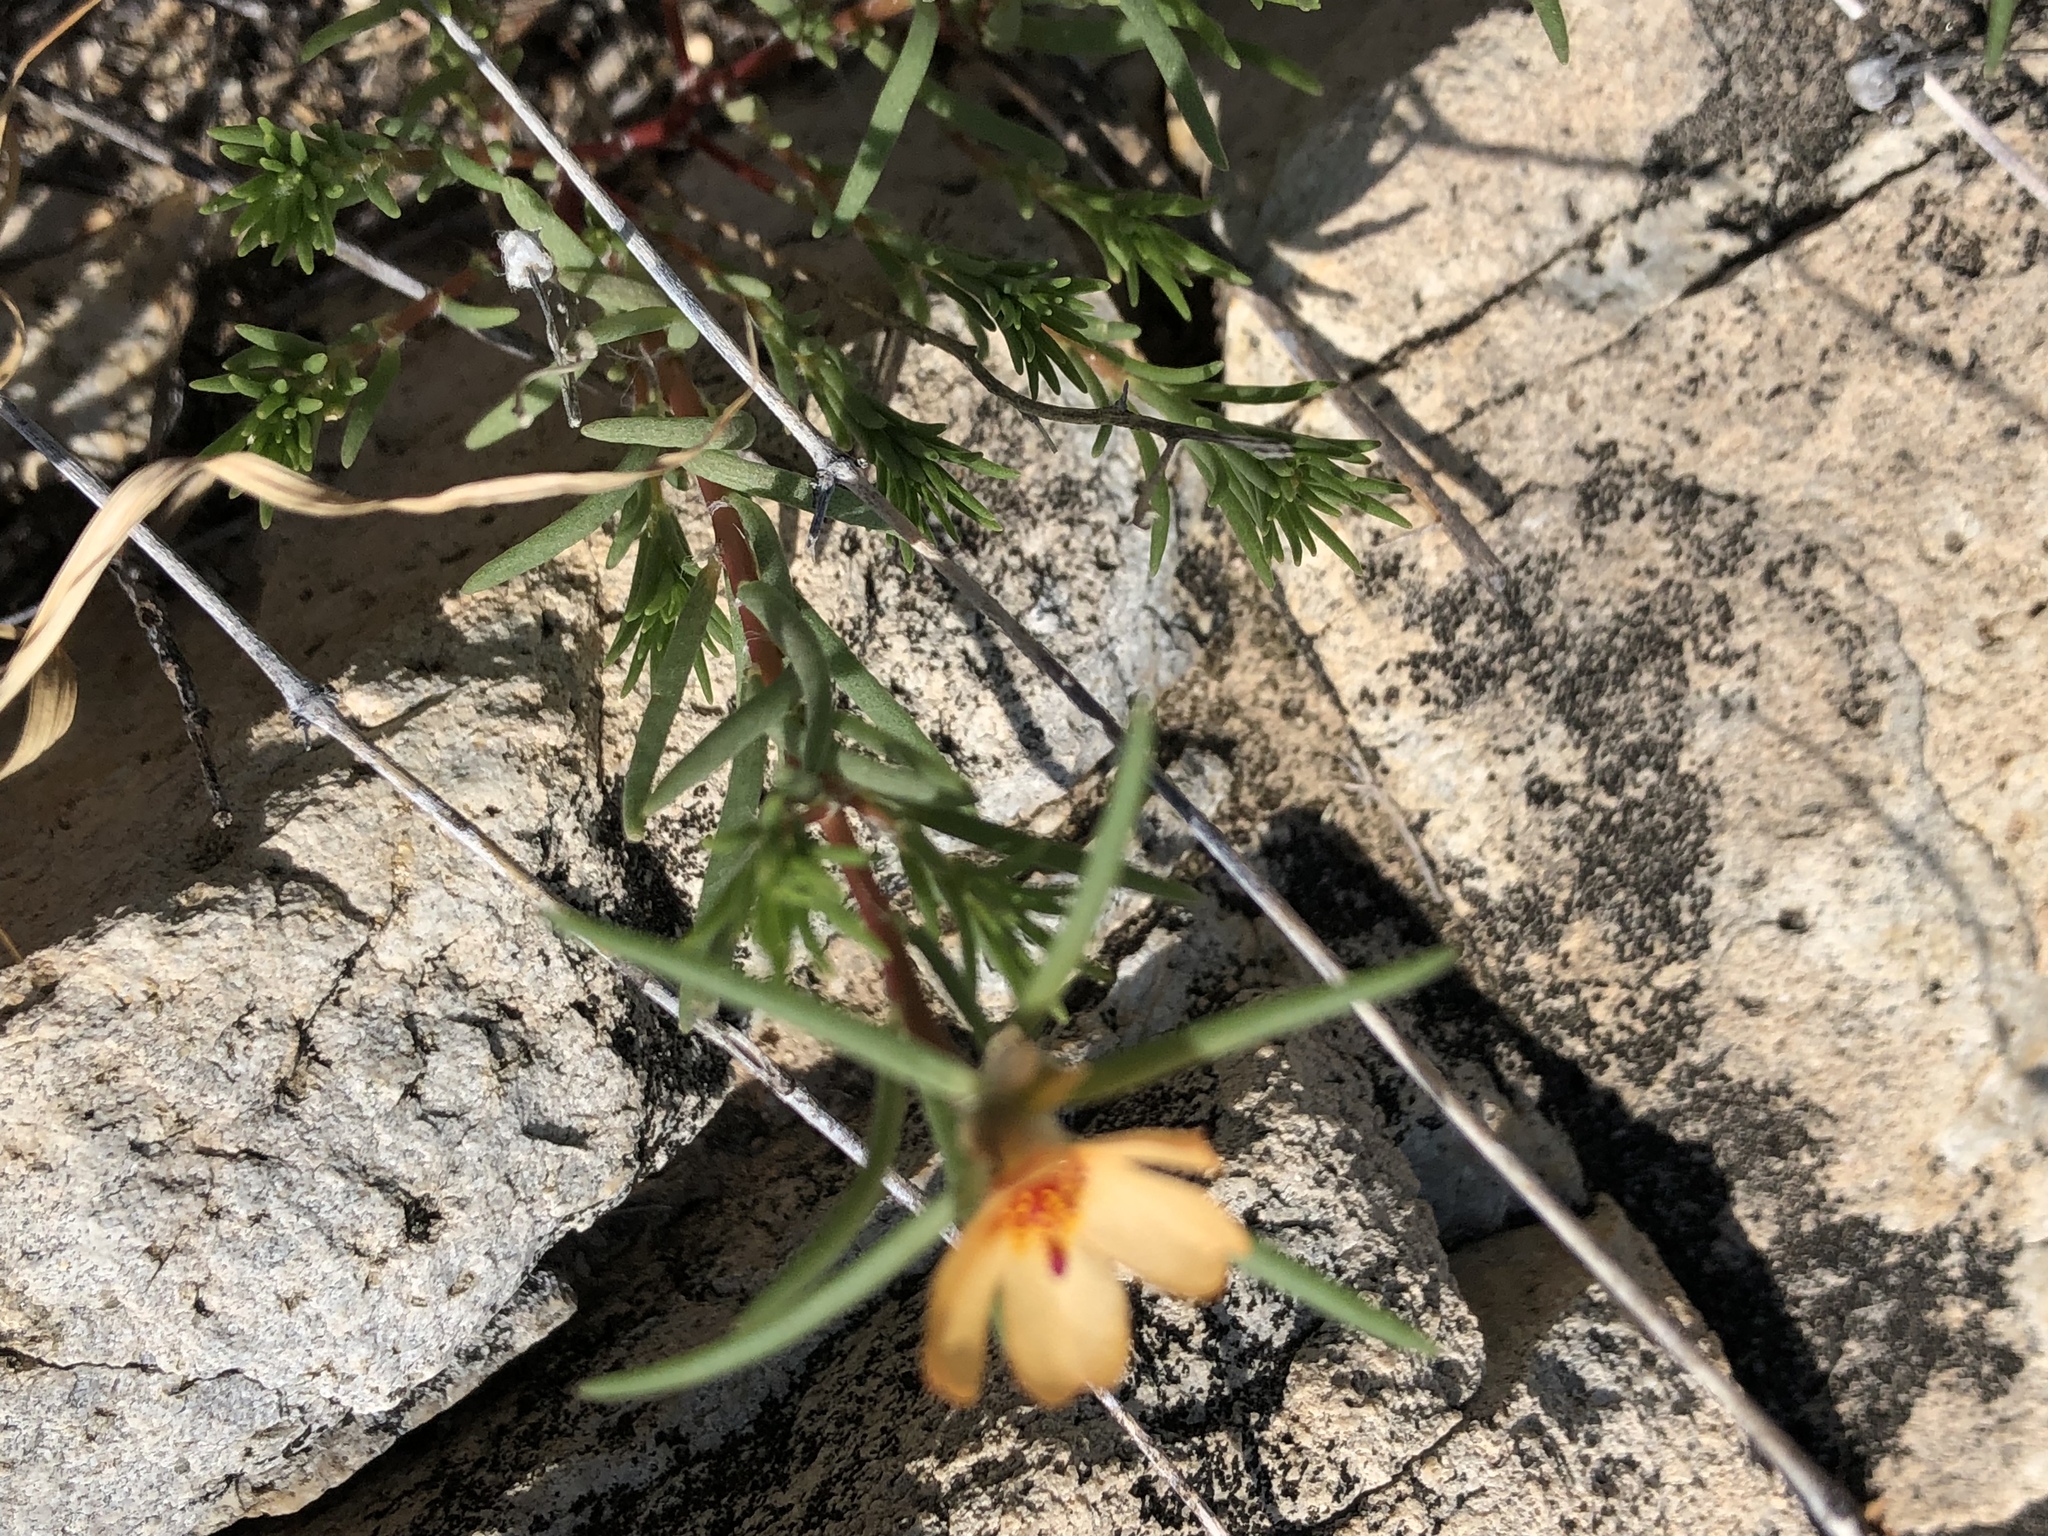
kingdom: Plantae
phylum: Tracheophyta
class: Magnoliopsida
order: Caryophyllales
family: Portulacaceae
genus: Portulaca
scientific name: Portulaca suffrutescens
